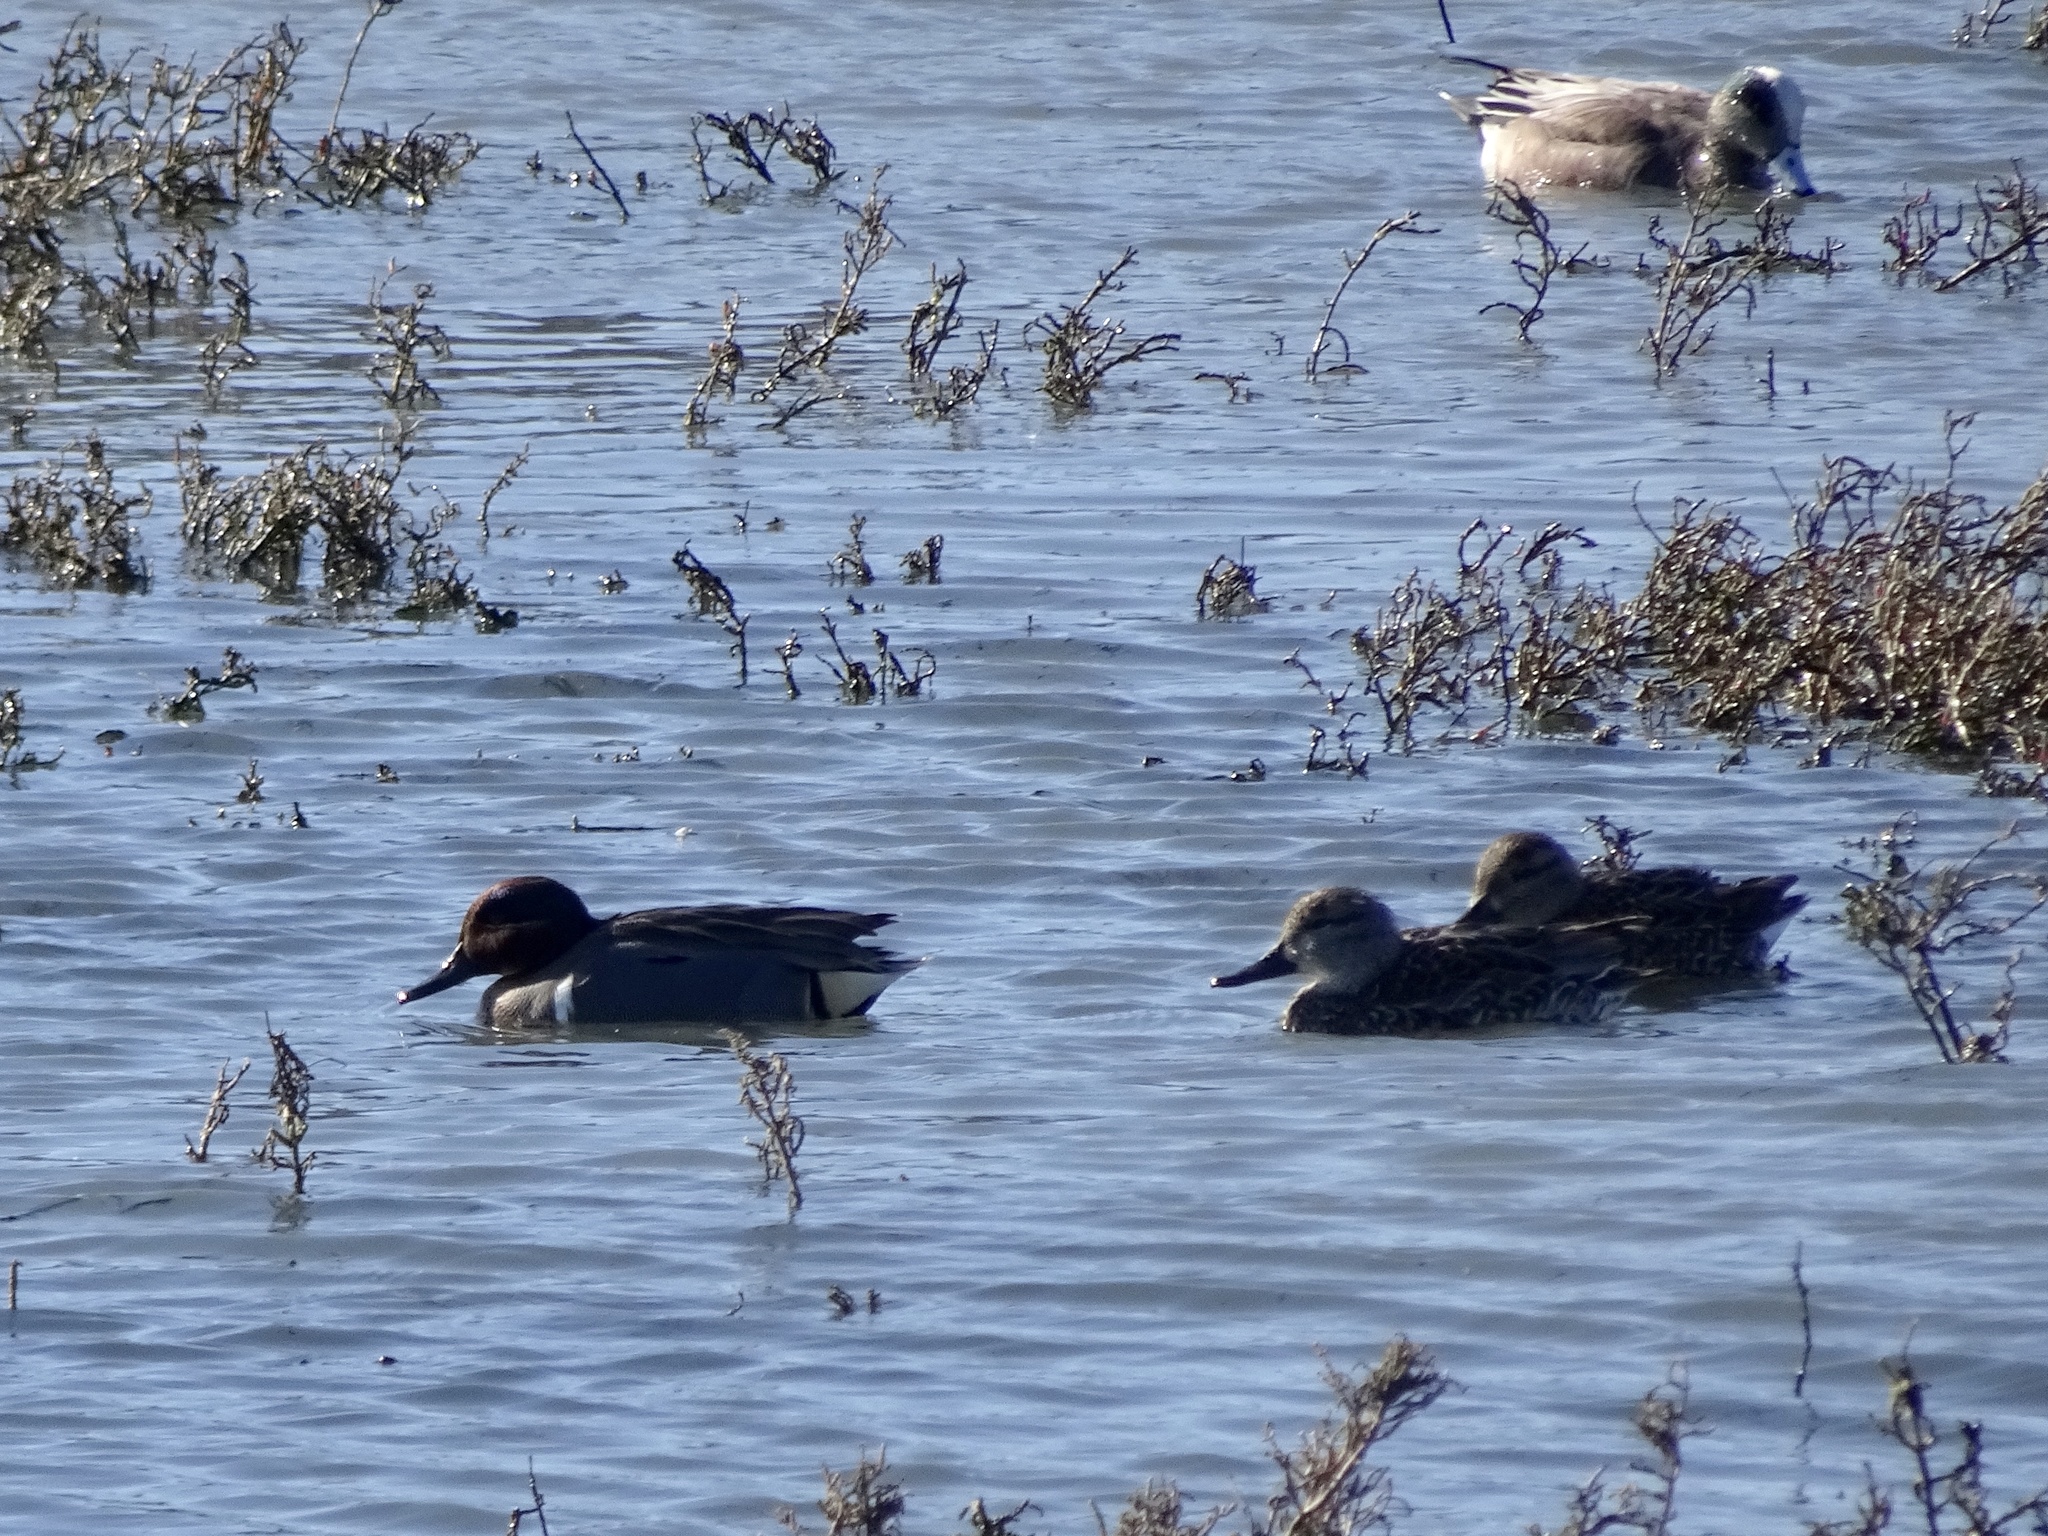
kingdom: Animalia
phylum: Chordata
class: Aves
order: Anseriformes
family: Anatidae
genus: Anas
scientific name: Anas crecca
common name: Eurasian teal
